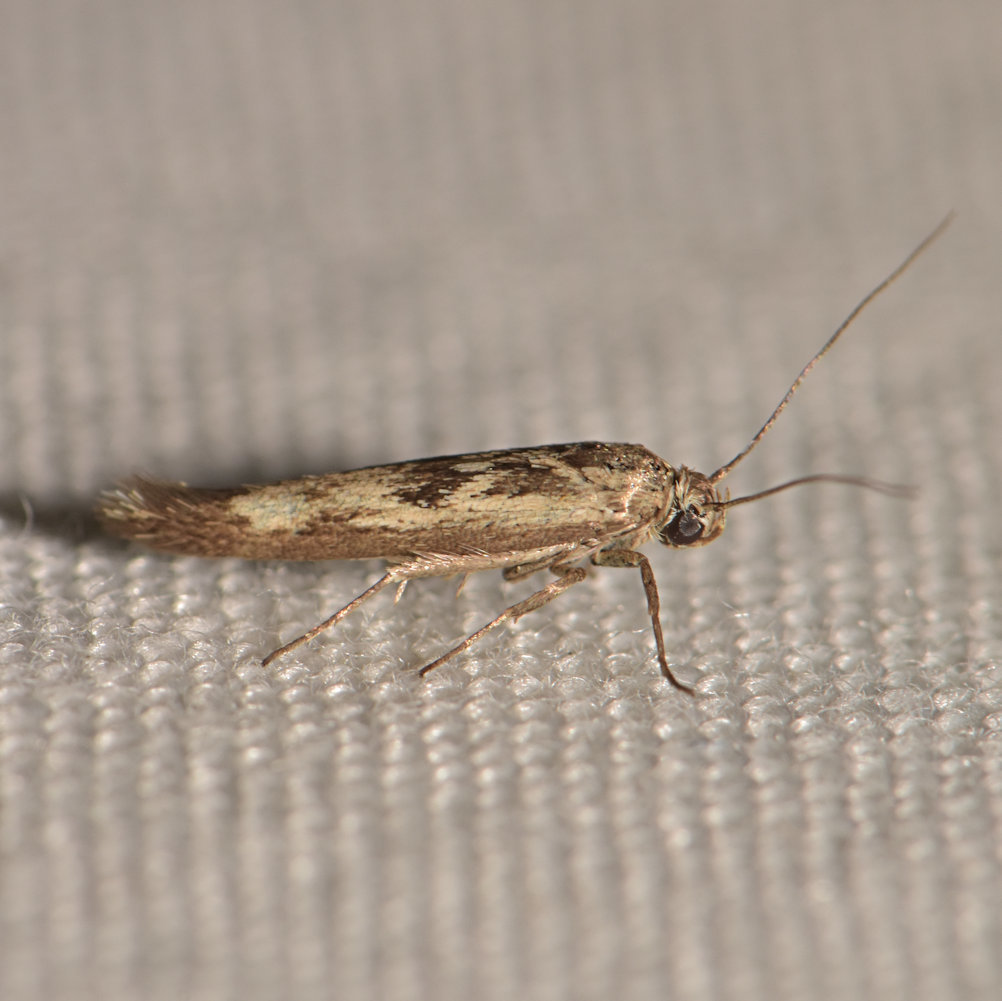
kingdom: Animalia
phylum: Arthropoda
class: Insecta
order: Lepidoptera
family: Scythrididae
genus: Scythris
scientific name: Scythris limbella
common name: Goosefoot owlet
